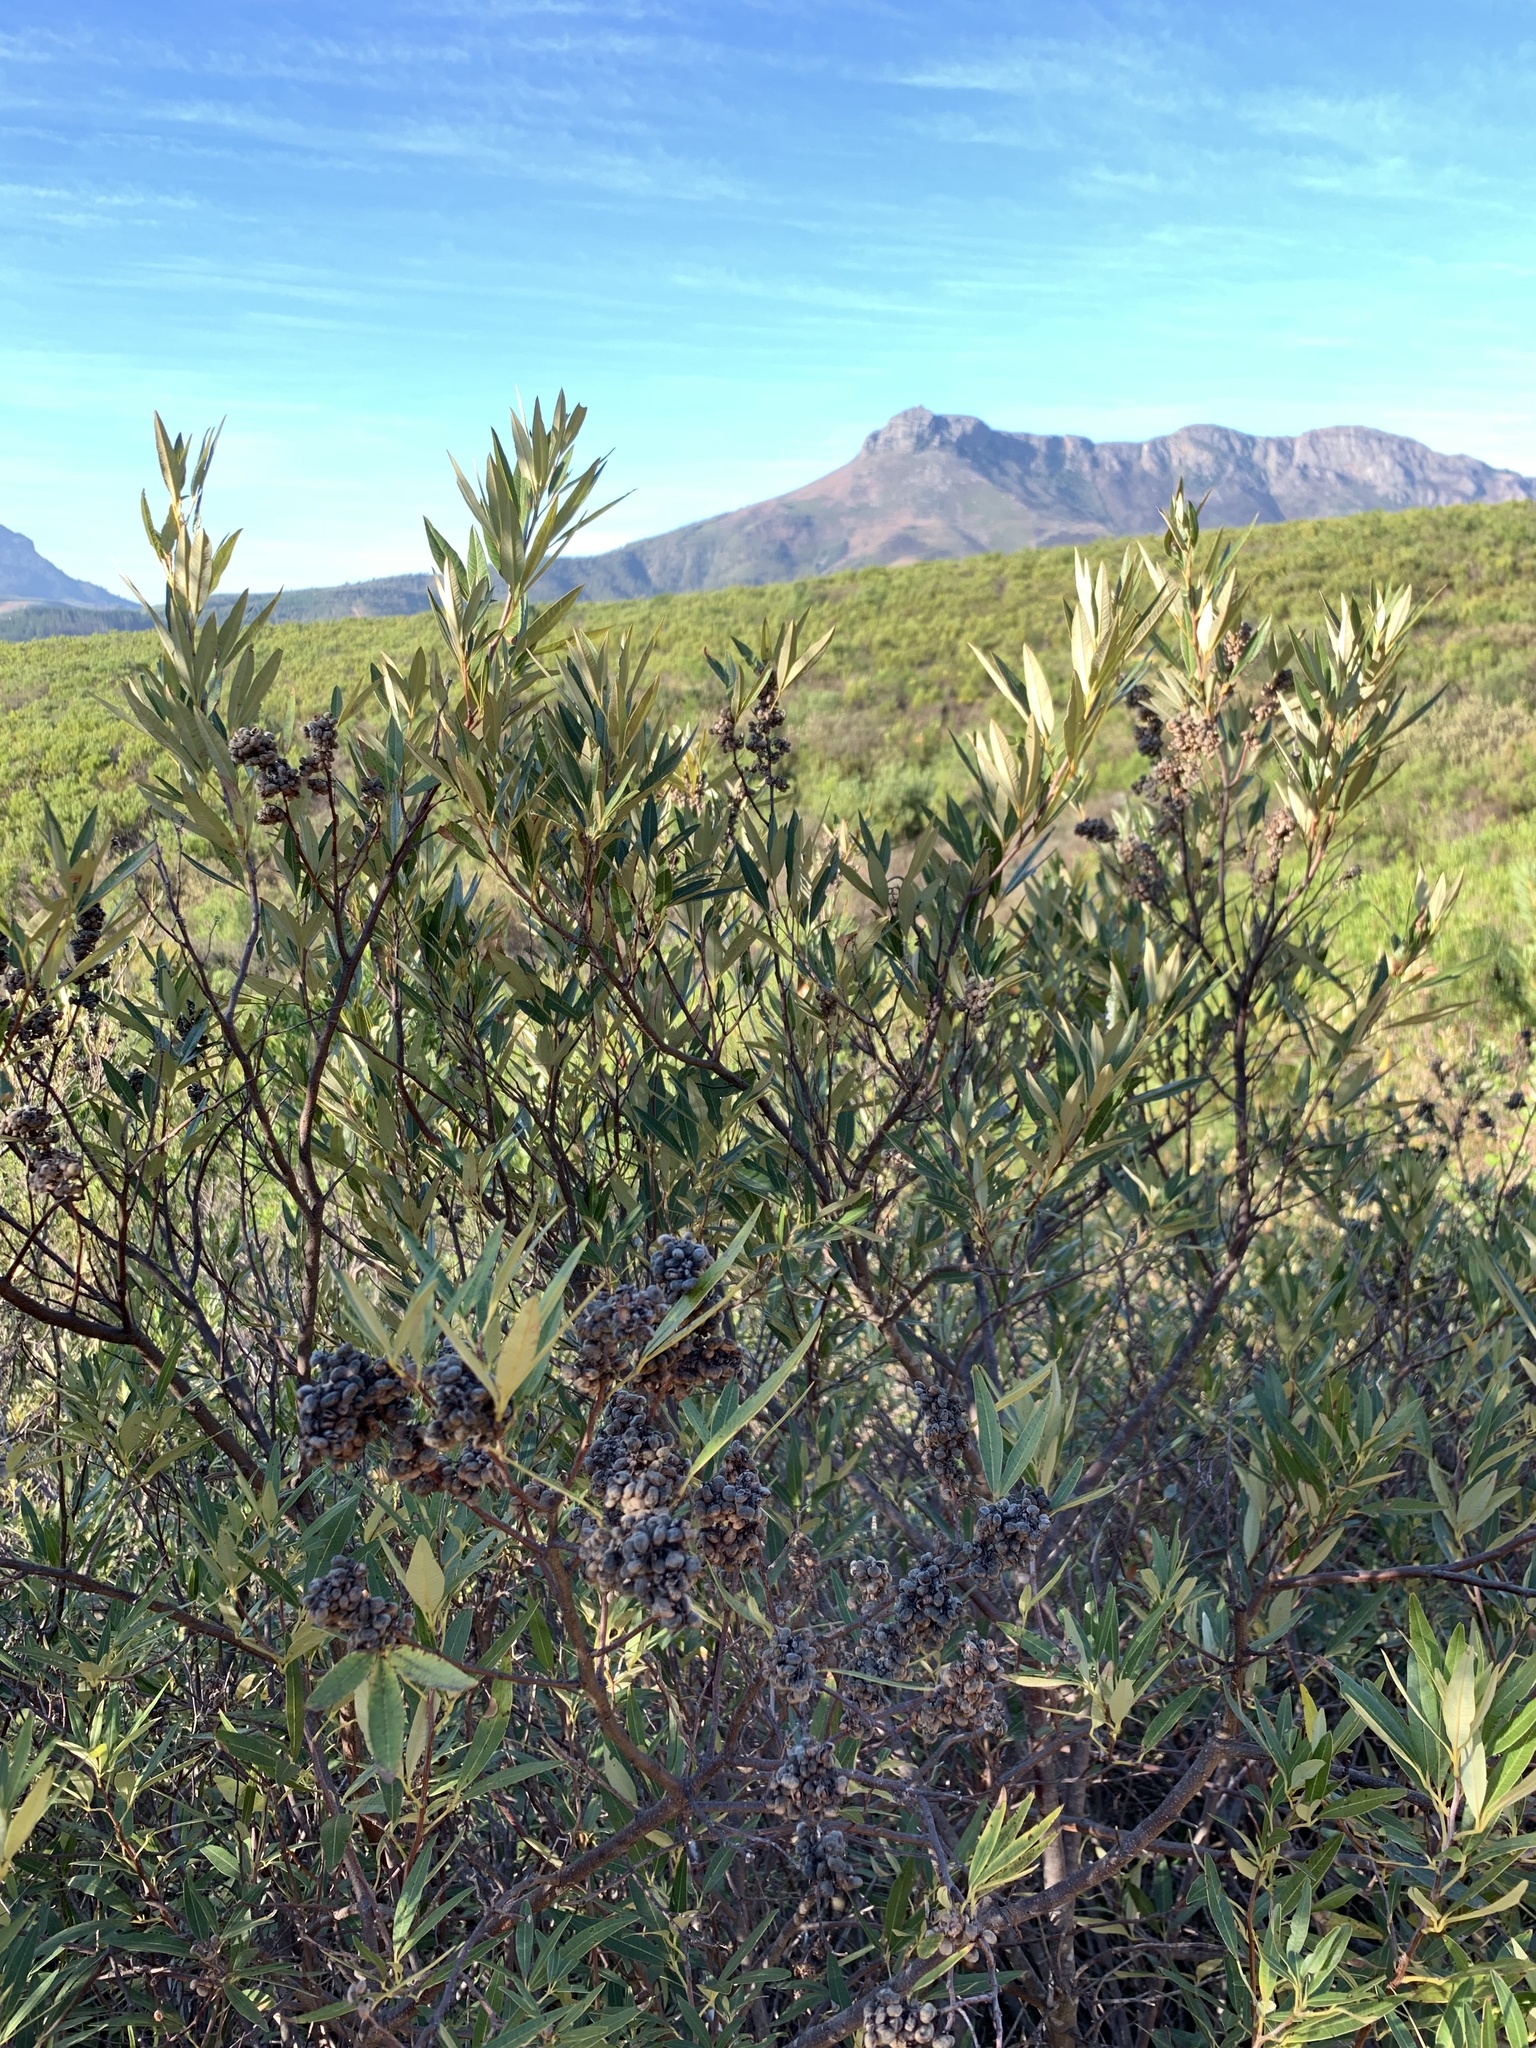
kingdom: Plantae
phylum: Tracheophyta
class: Magnoliopsida
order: Sapindales
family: Anacardiaceae
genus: Searsia
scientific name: Searsia angustifolia
